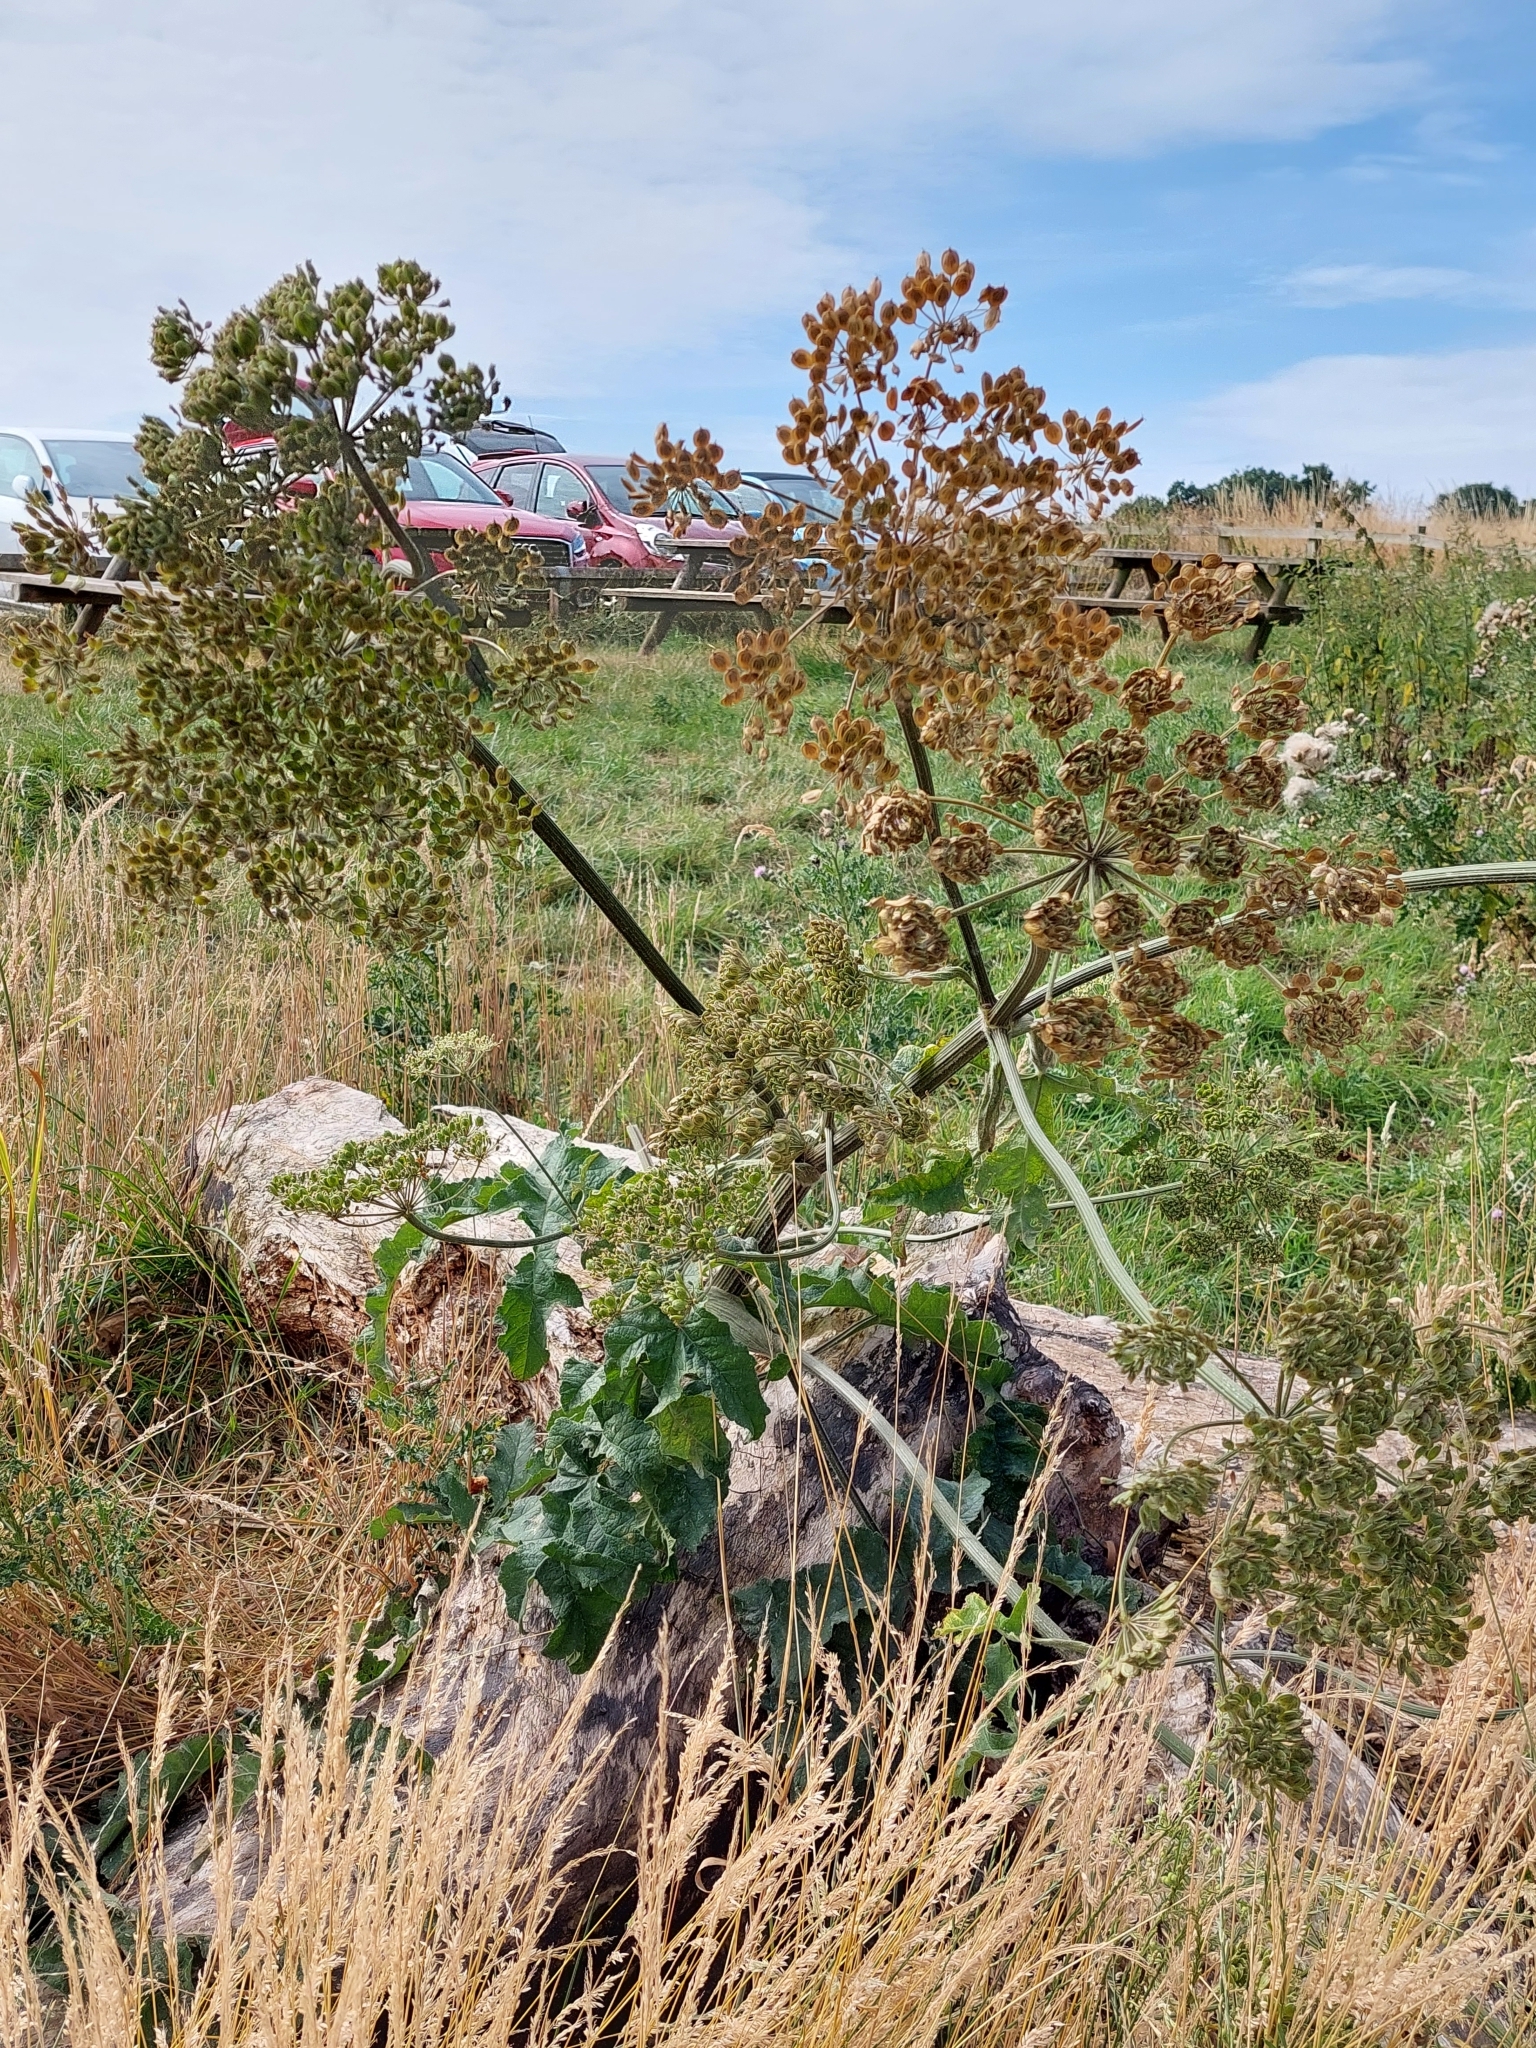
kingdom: Plantae
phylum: Tracheophyta
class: Magnoliopsida
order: Apiales
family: Apiaceae
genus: Heracleum
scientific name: Heracleum sphondylium
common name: Hogweed
